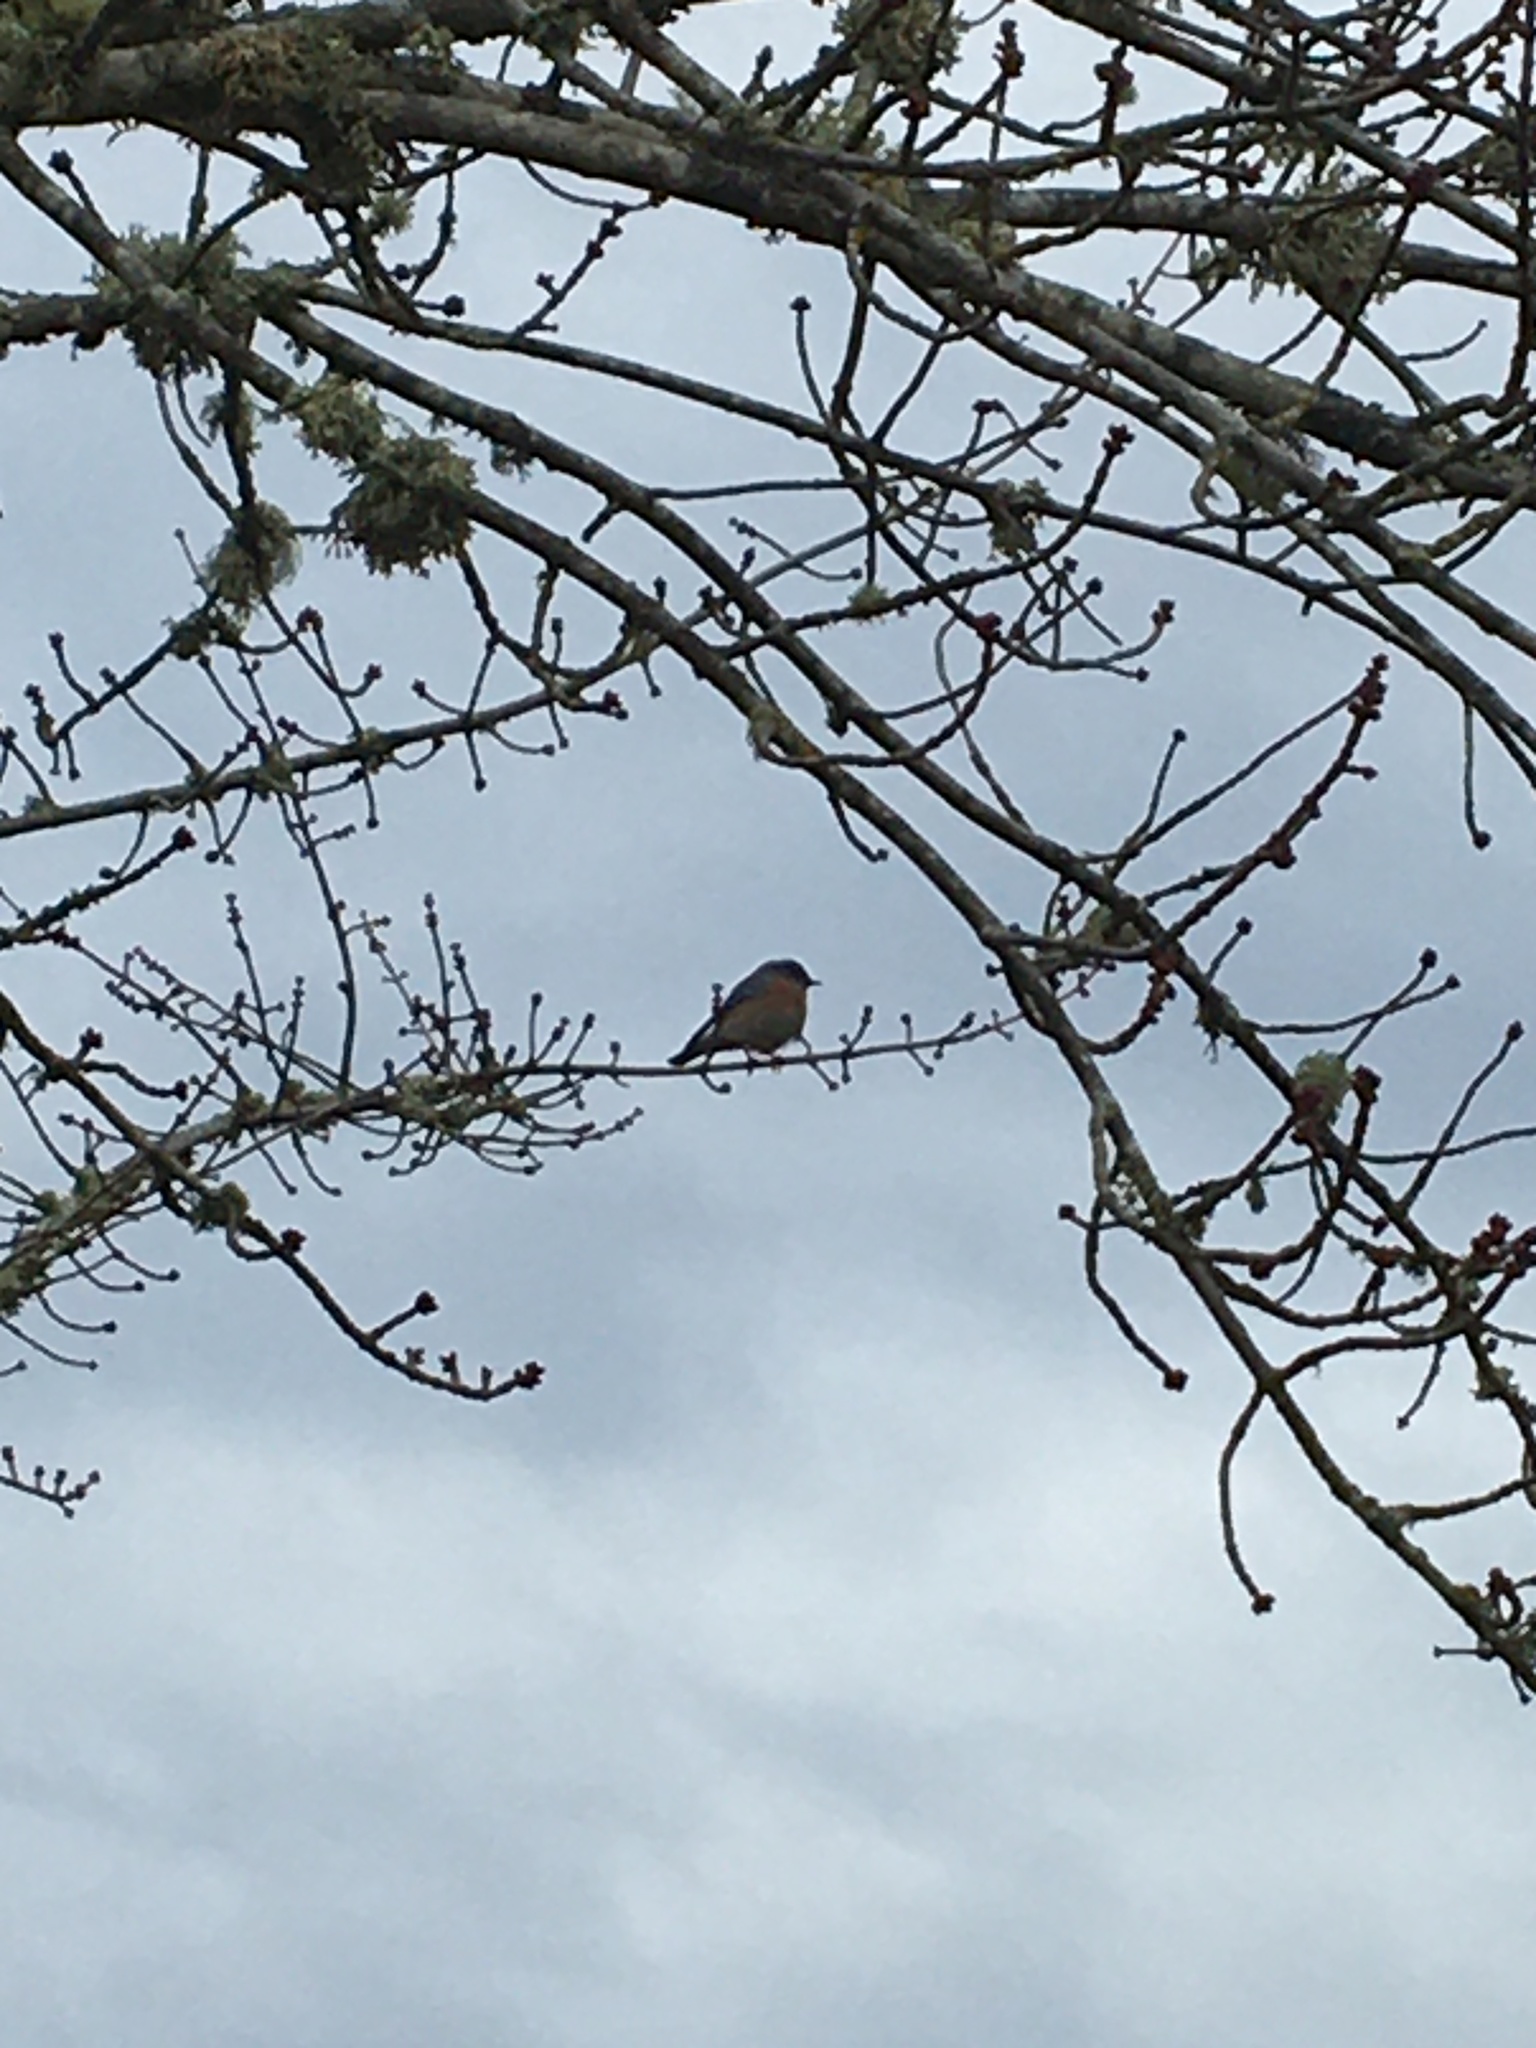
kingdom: Animalia
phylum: Chordata
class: Aves
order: Passeriformes
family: Turdidae
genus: Sialia
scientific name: Sialia mexicana
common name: Western bluebird
